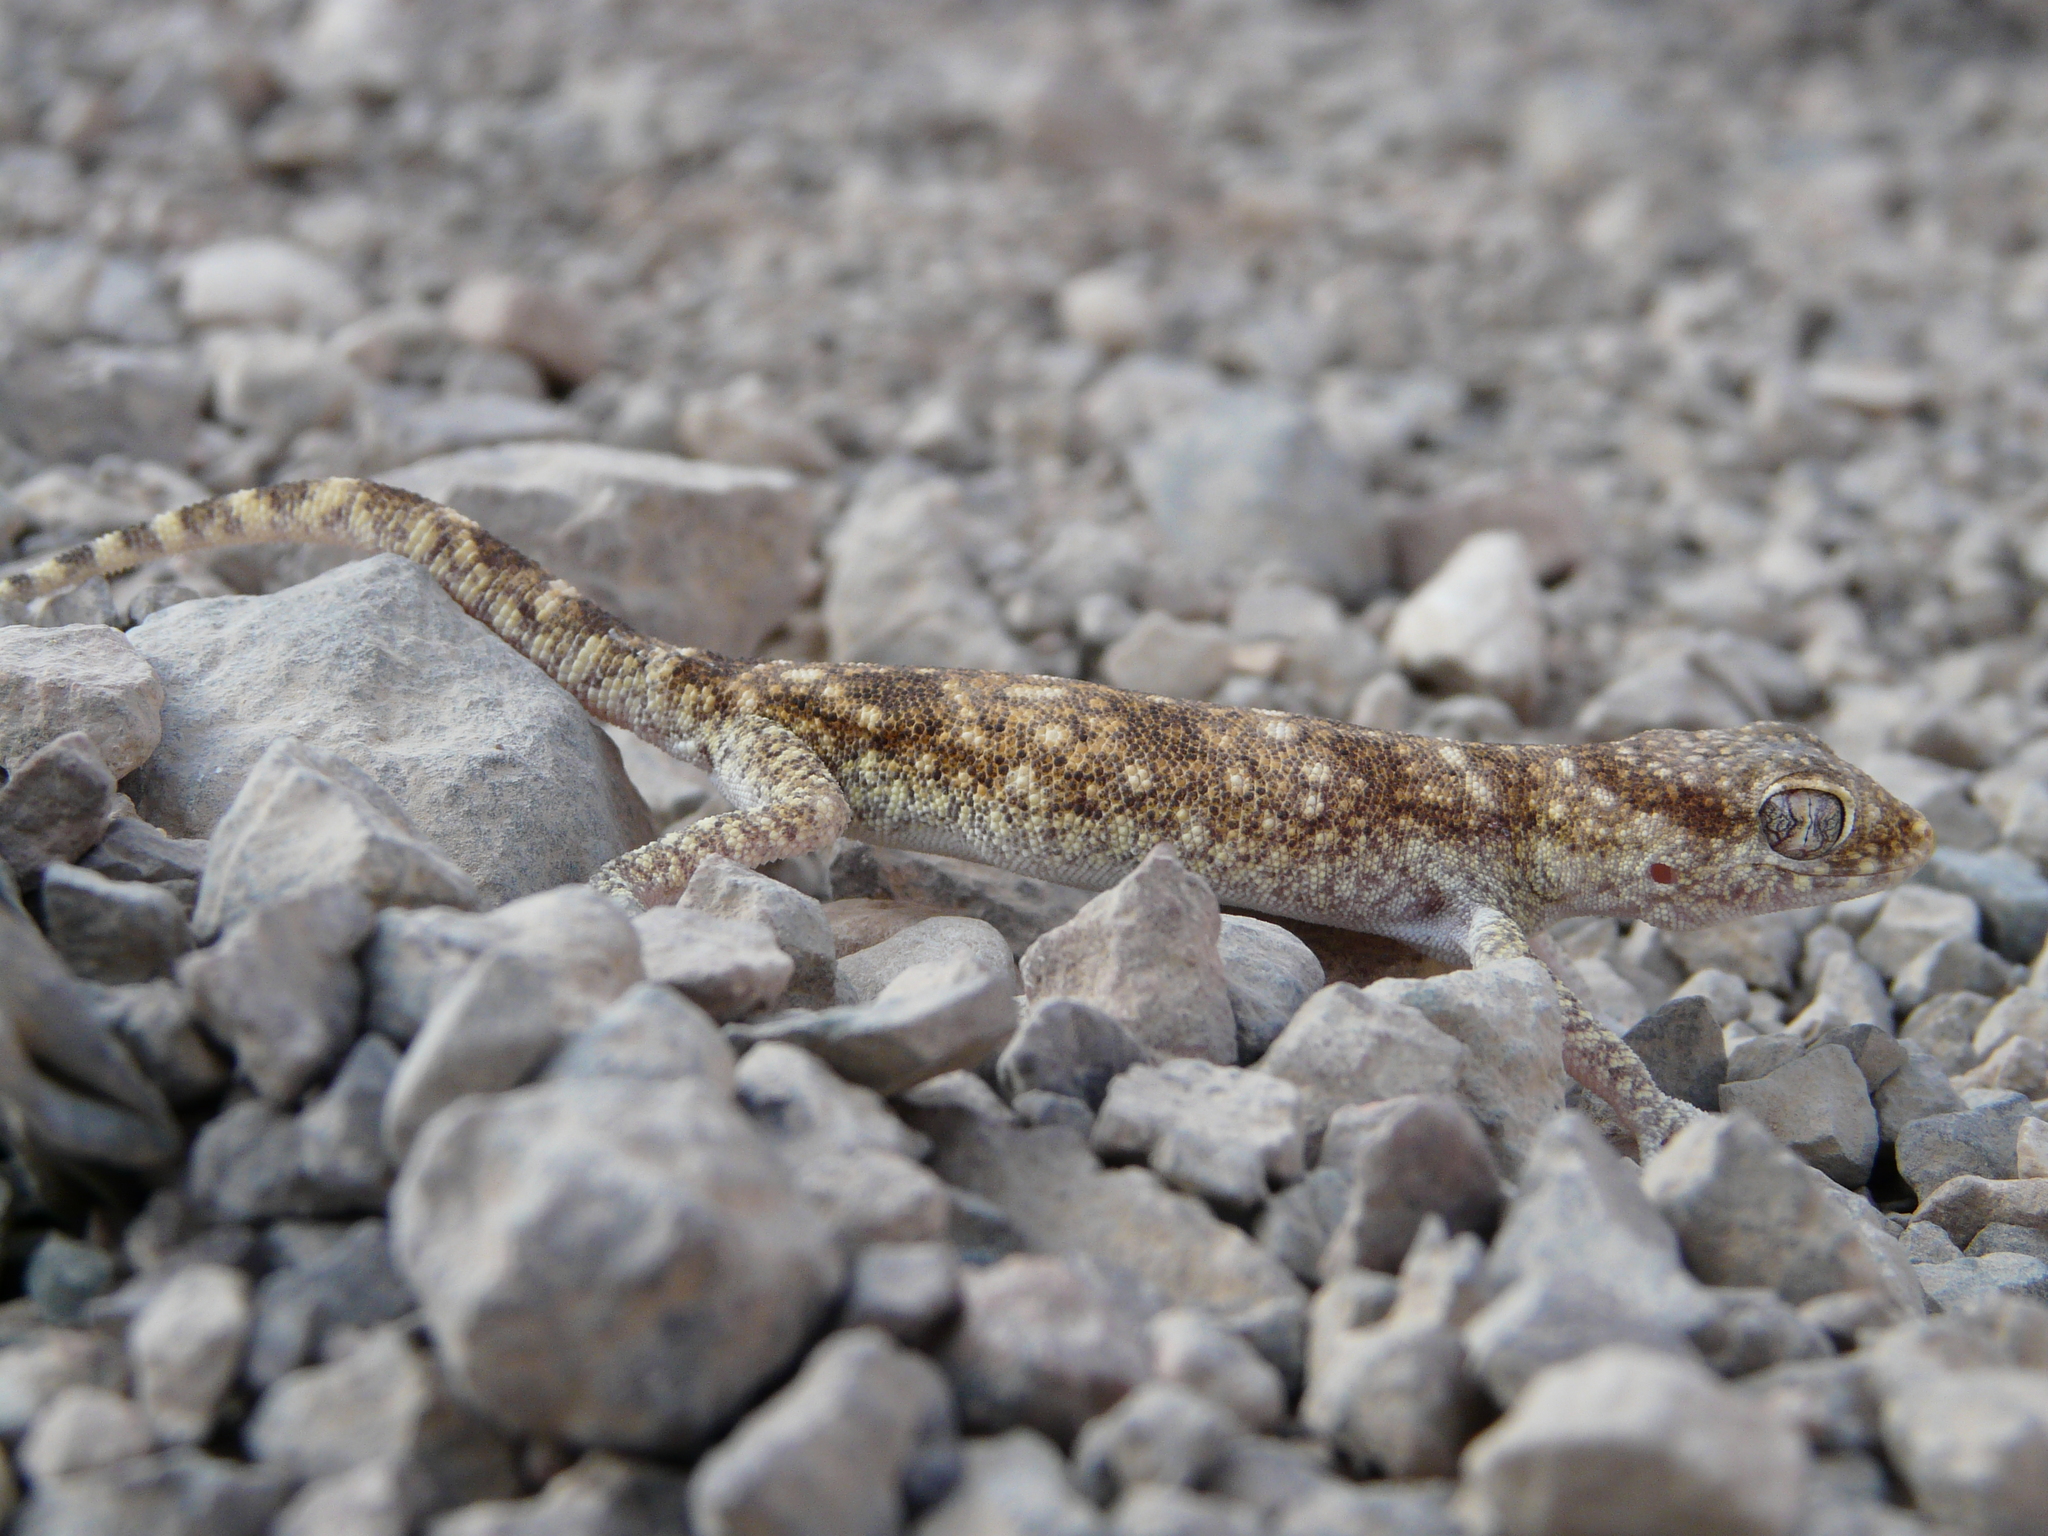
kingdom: Animalia
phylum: Chordata
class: Squamata
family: Gekkonidae
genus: Stenodactylus
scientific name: Stenodactylus sthenodactylus
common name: Elegant gecko
